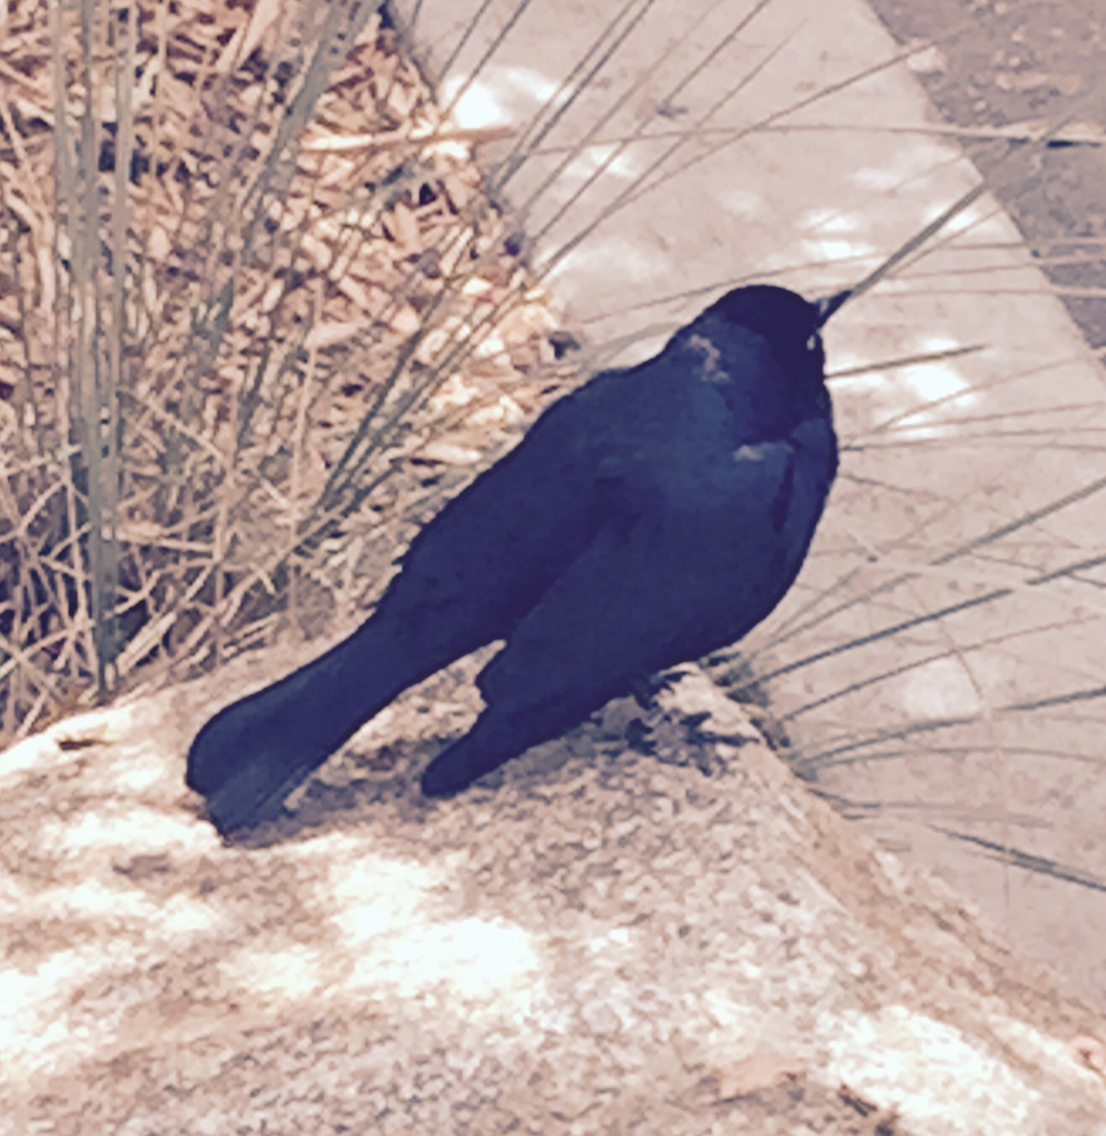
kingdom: Animalia
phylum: Chordata
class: Aves
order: Passeriformes
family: Icteridae
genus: Euphagus
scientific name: Euphagus cyanocephalus
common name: Brewer's blackbird
